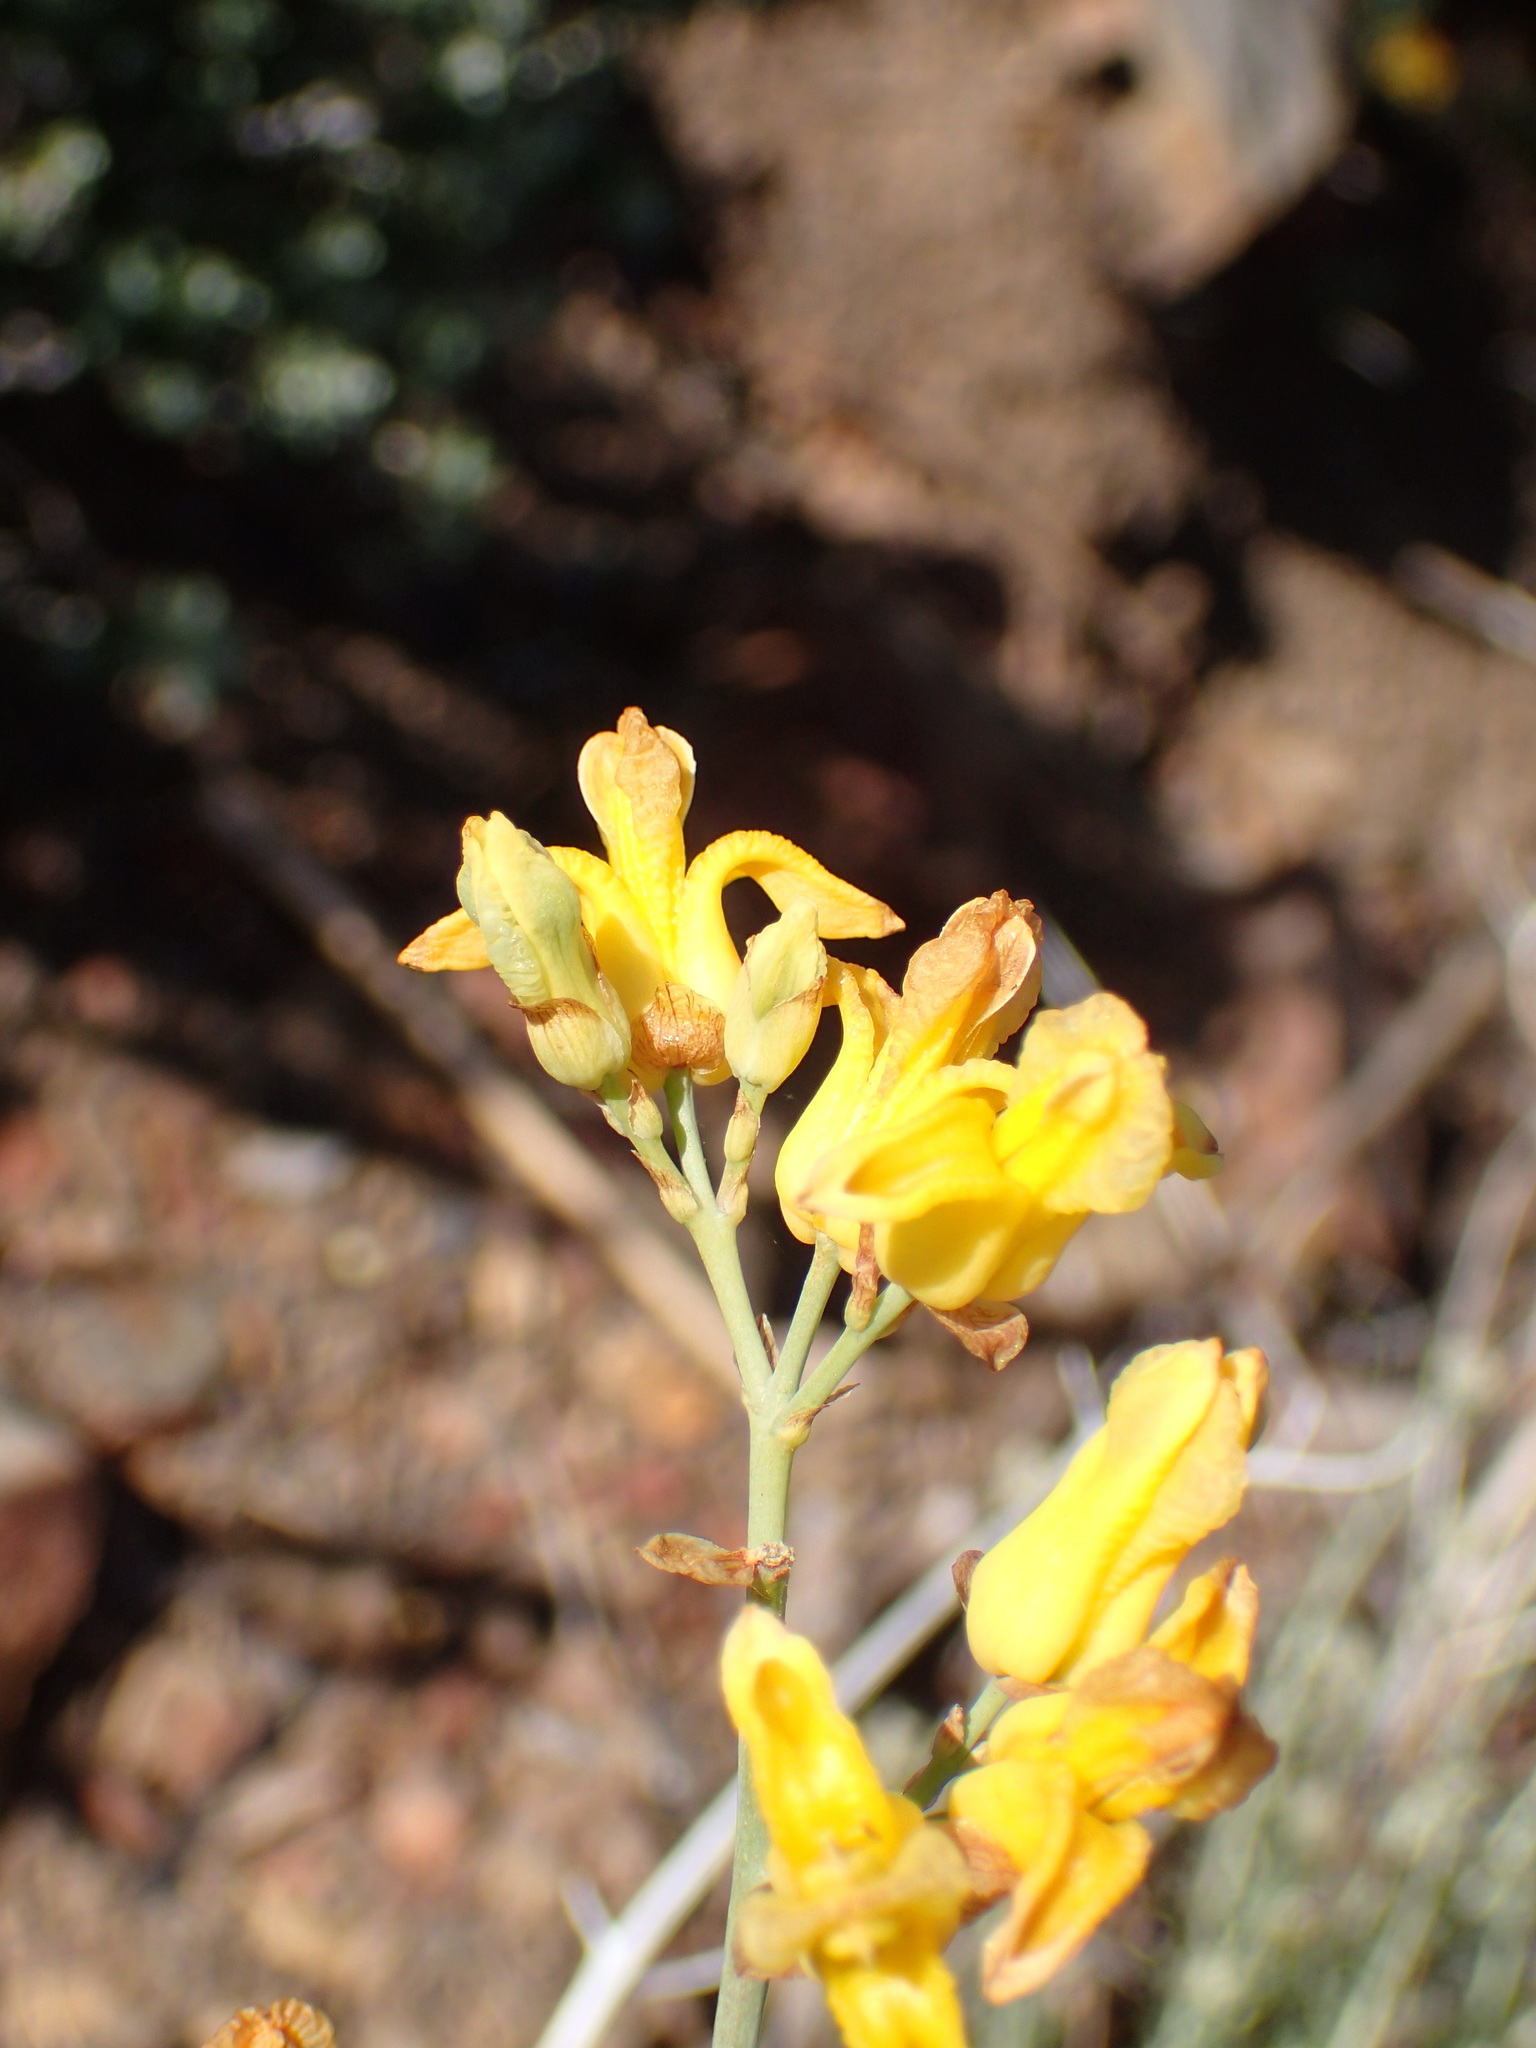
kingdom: Plantae
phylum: Tracheophyta
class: Magnoliopsida
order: Ranunculales
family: Papaveraceae
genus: Ehrendorferia
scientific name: Ehrendorferia chrysantha
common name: Golden eardrops
